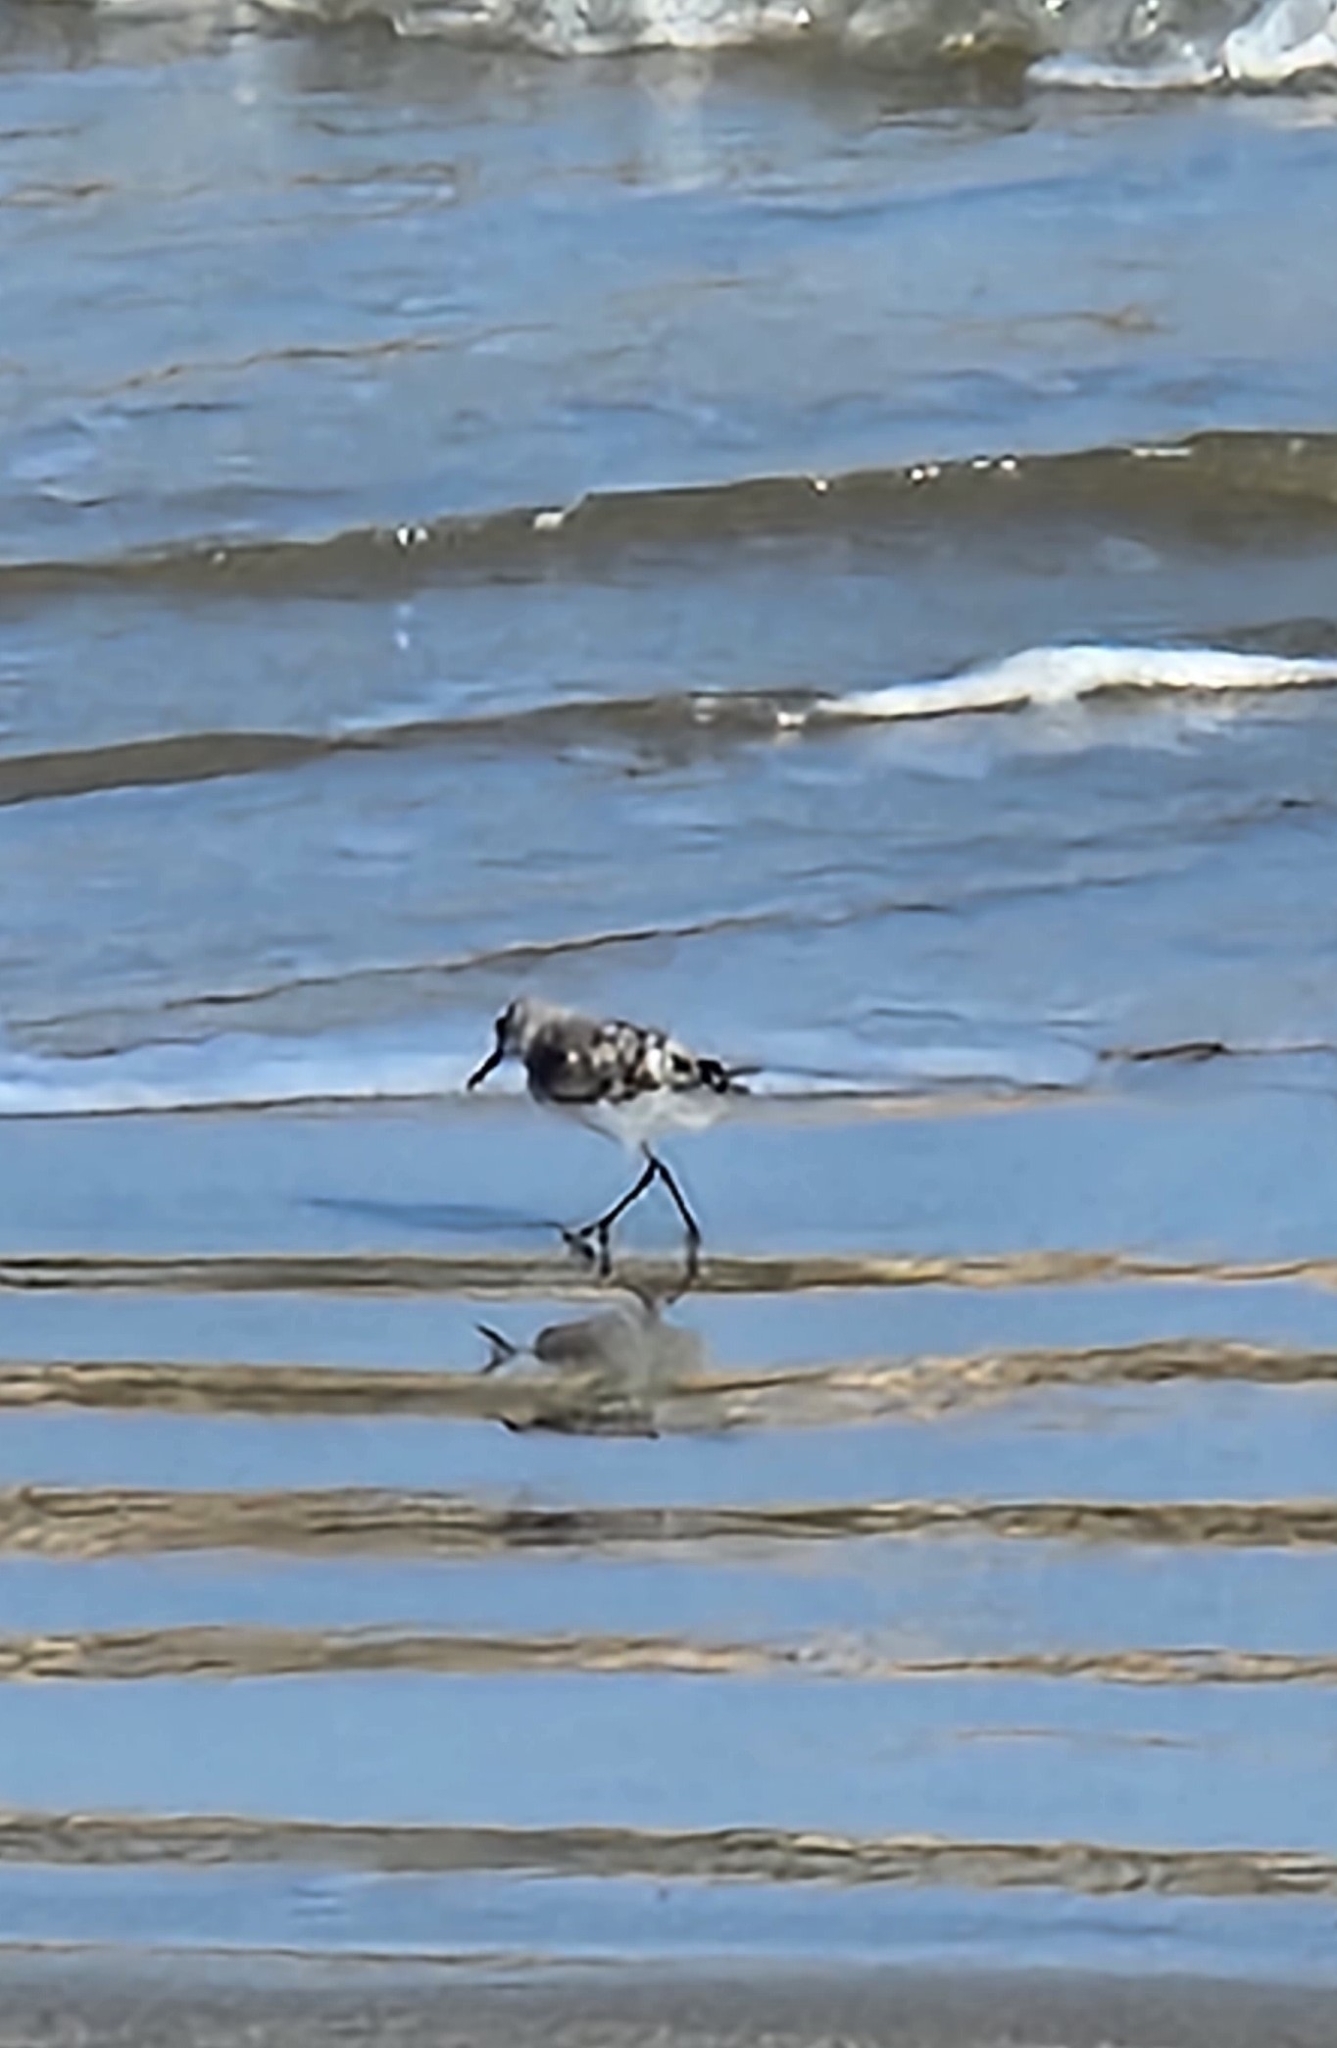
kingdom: Animalia
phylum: Chordata
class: Aves
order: Charadriiformes
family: Scolopacidae
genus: Calidris
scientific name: Calidris alba
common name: Sanderling
